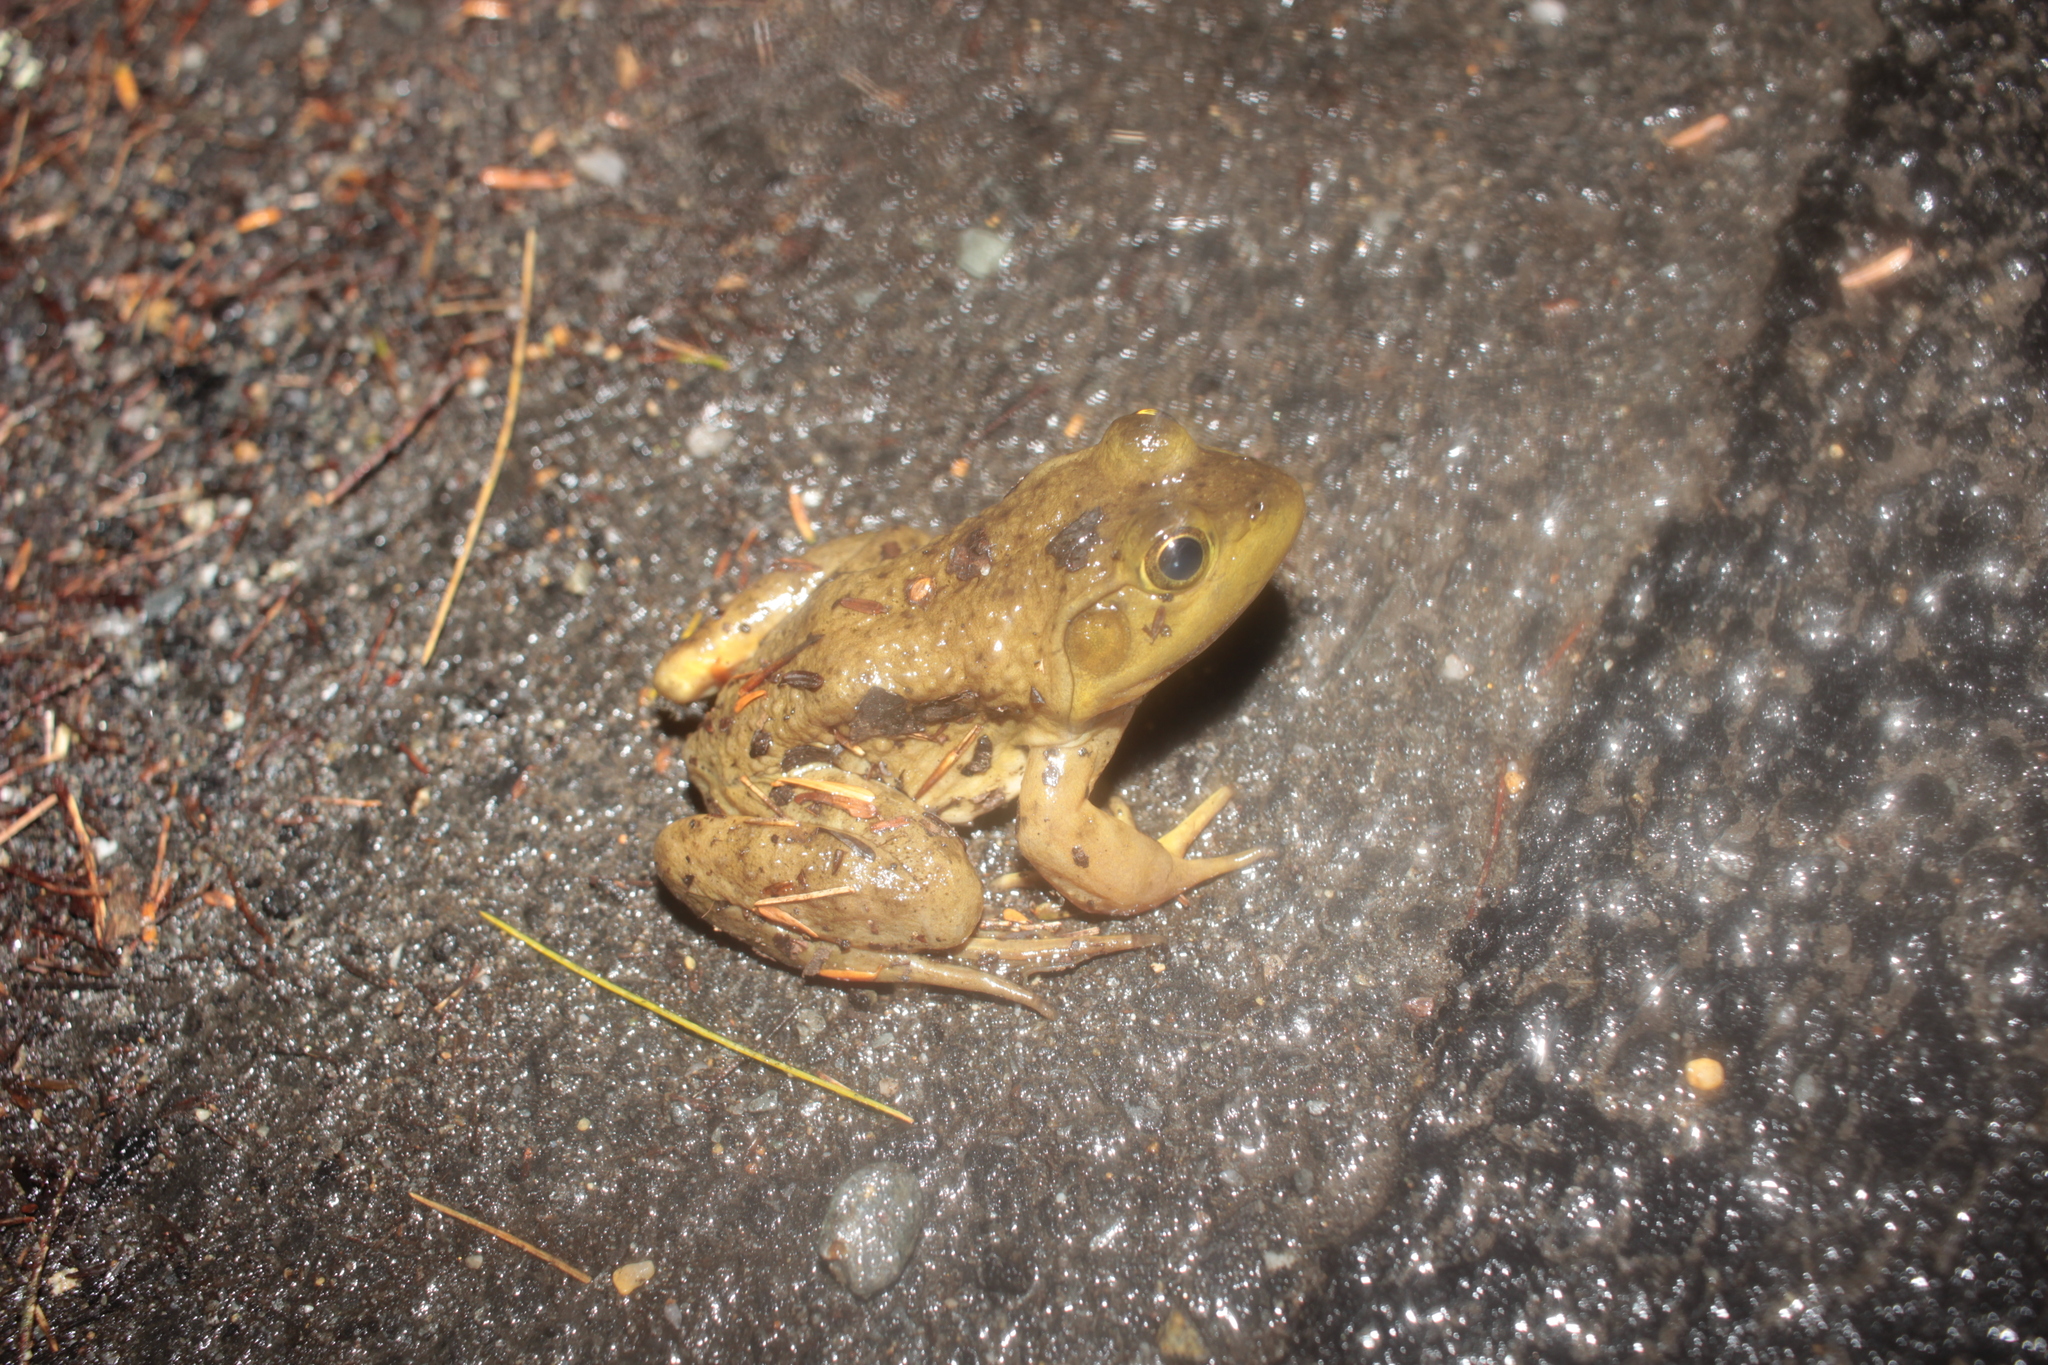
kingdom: Animalia
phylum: Chordata
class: Amphibia
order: Anura
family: Ranidae
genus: Lithobates
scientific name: Lithobates catesbeianus
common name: American bullfrog
